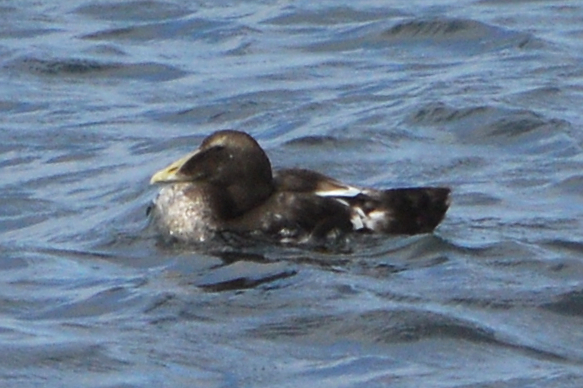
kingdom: Animalia
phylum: Chordata
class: Aves
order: Anseriformes
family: Anatidae
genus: Somateria
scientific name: Somateria mollissima
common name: Common eider
